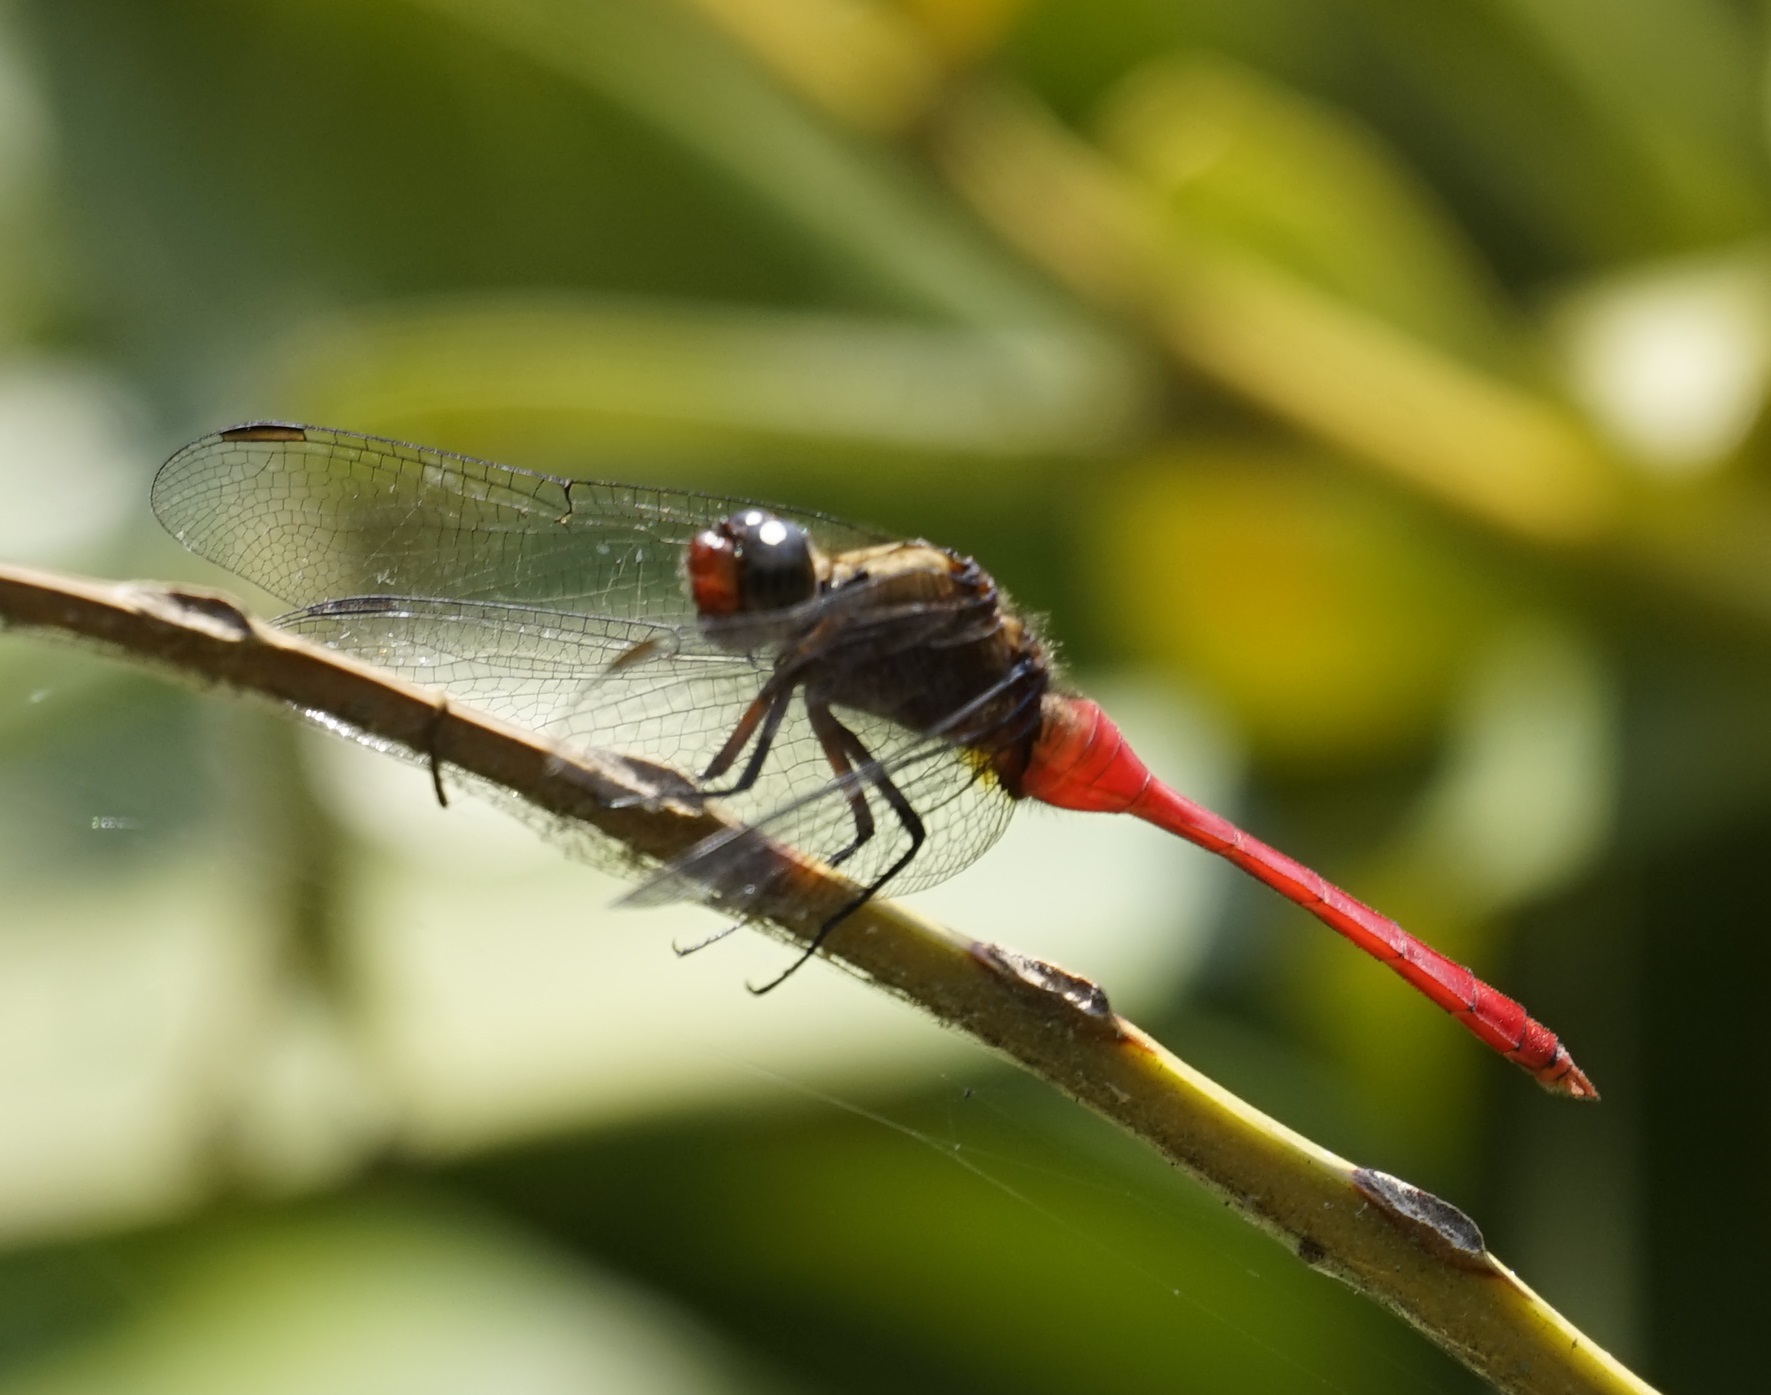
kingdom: Animalia
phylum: Arthropoda
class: Insecta
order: Odonata
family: Libellulidae
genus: Orthetrum
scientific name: Orthetrum villosovittatum
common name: Firery skimmer
